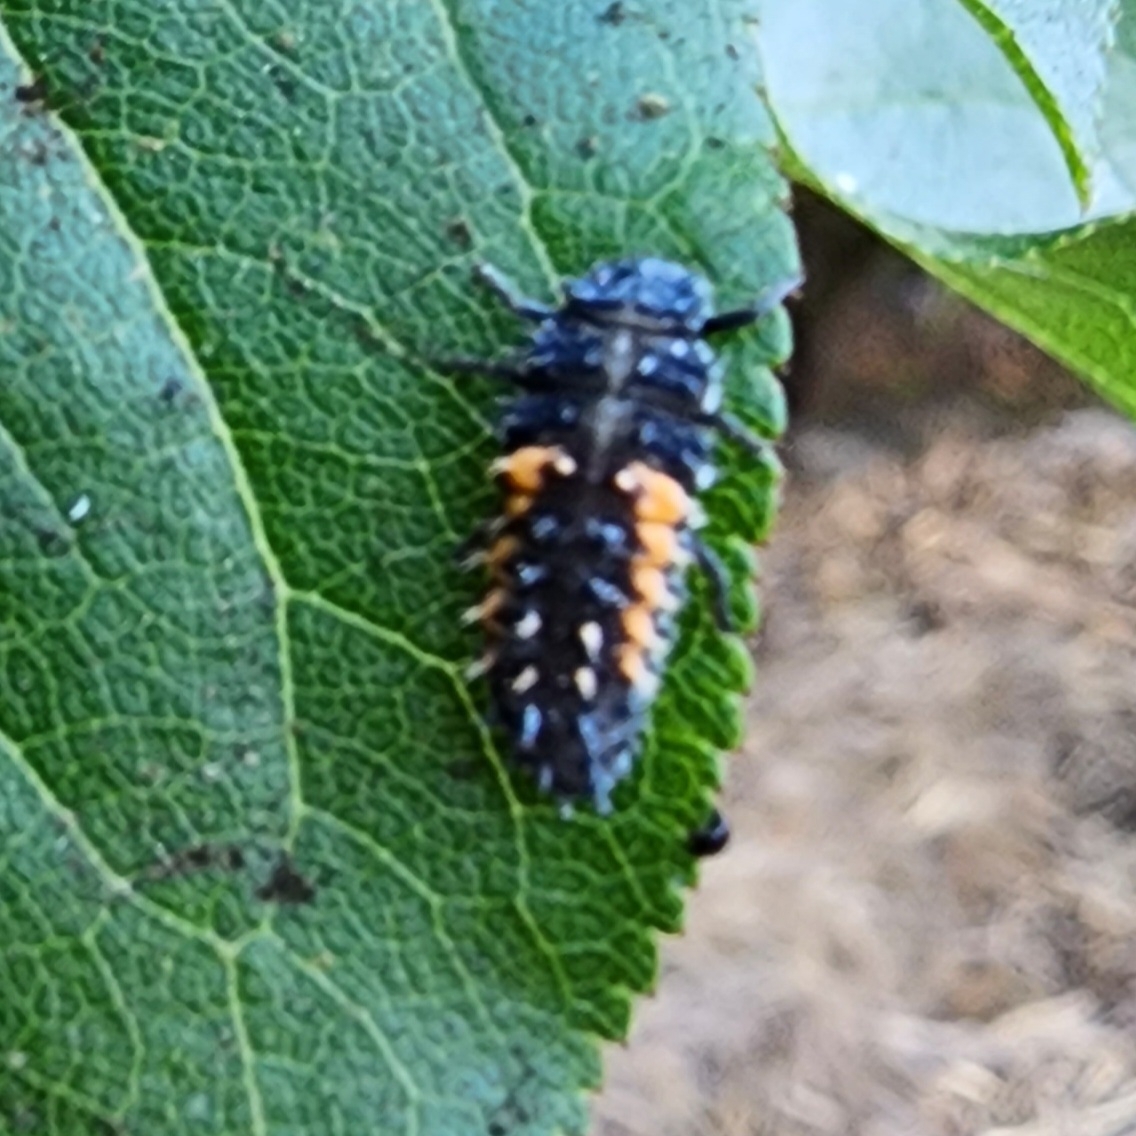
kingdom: Animalia
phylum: Arthropoda
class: Insecta
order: Coleoptera
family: Coccinellidae
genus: Harmonia
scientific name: Harmonia axyridis
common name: Harlequin ladybird
